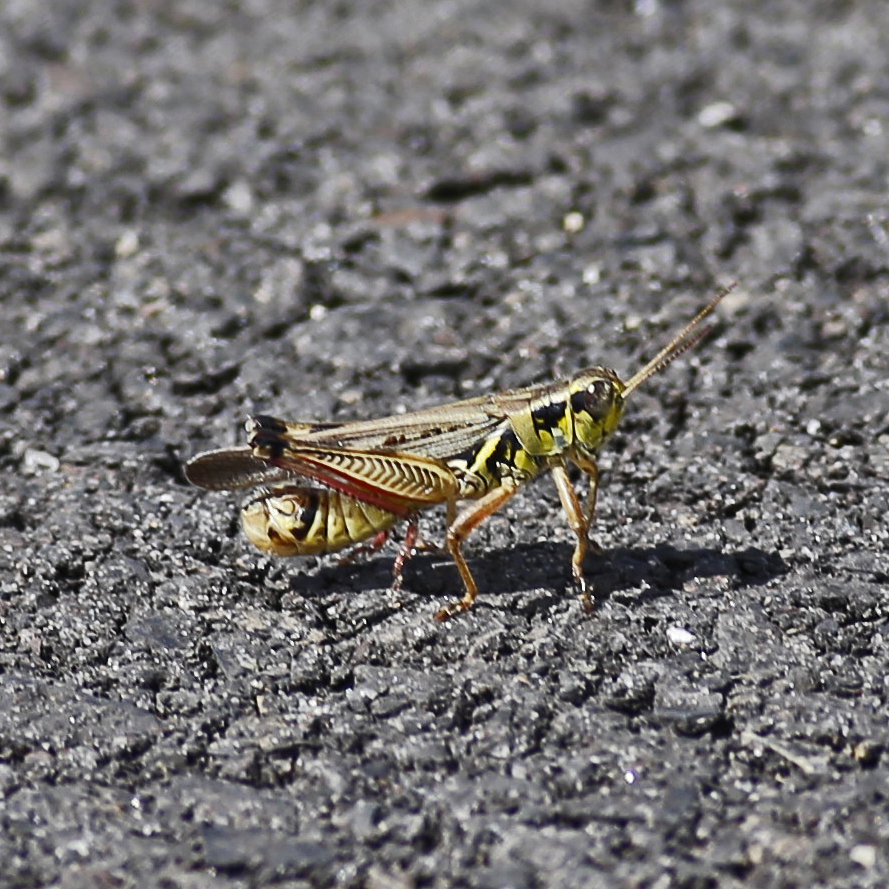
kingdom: Animalia
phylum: Arthropoda
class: Insecta
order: Orthoptera
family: Acrididae
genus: Melanoplus
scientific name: Melanoplus femurrubrum
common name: Red-legged grasshopper
